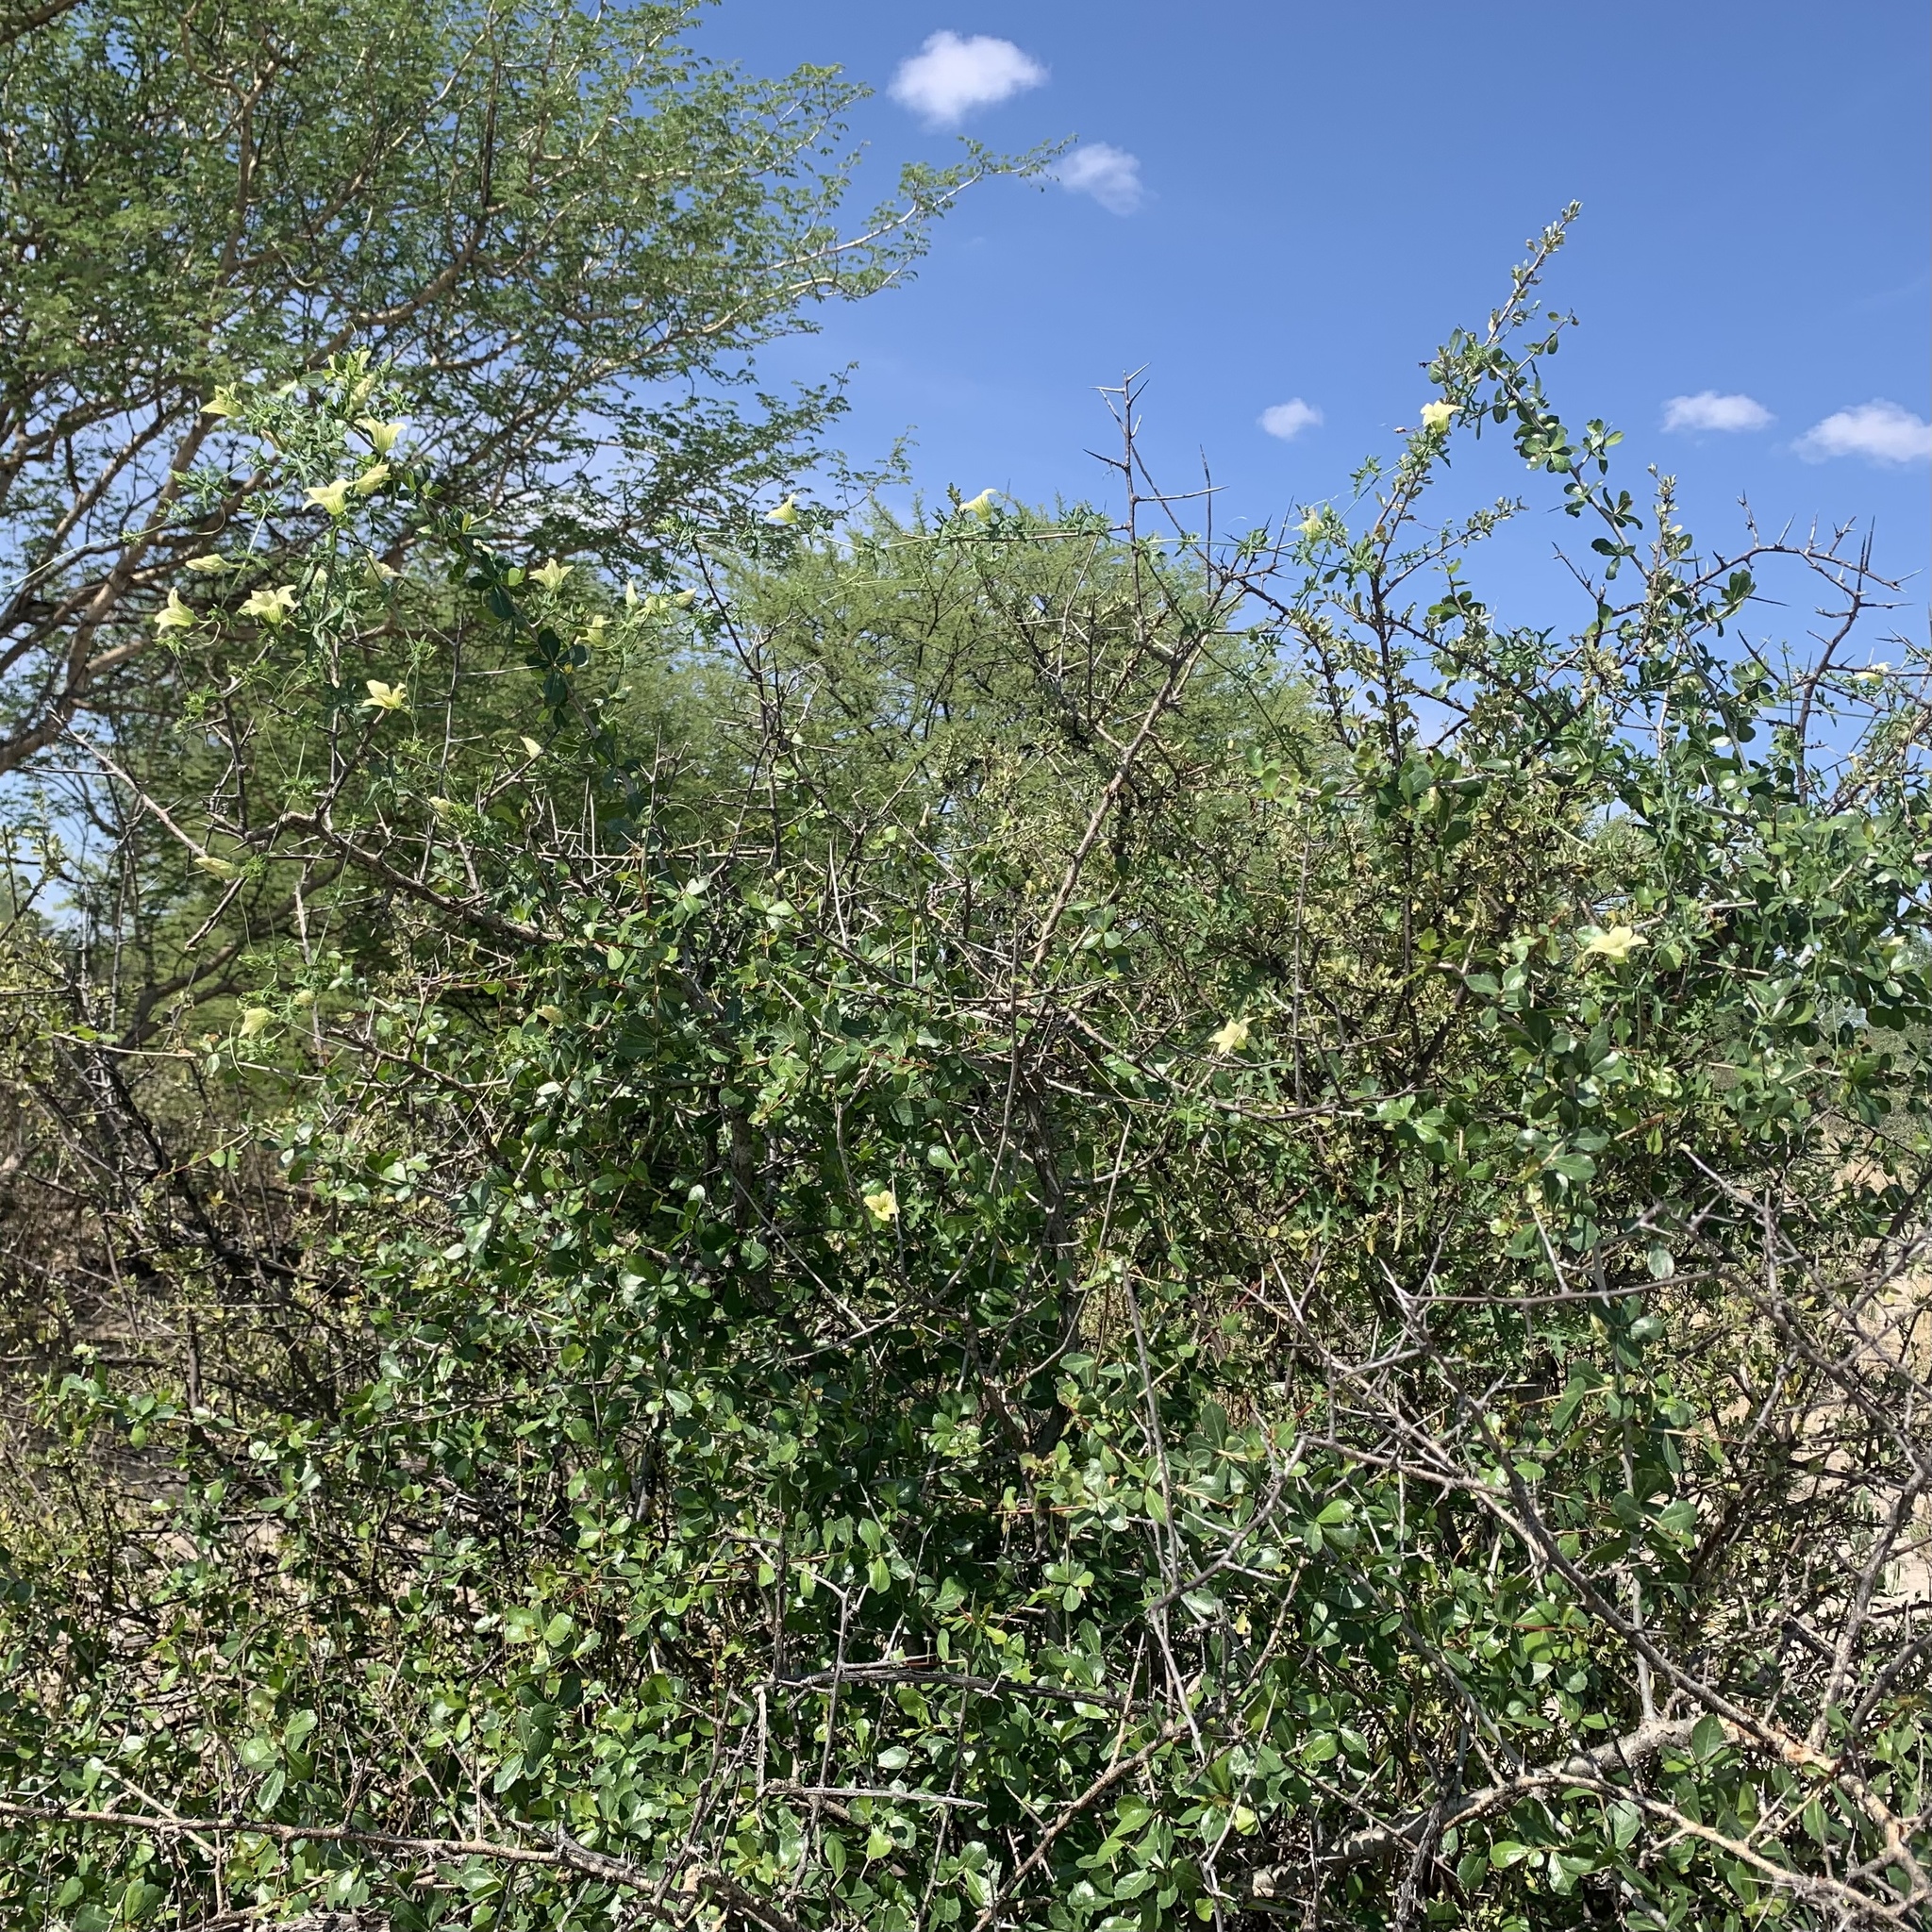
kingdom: Plantae
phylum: Tracheophyta
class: Magnoliopsida
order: Cucurbitales
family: Cucurbitaceae
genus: Coccinia
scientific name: Coccinia rehmannii
